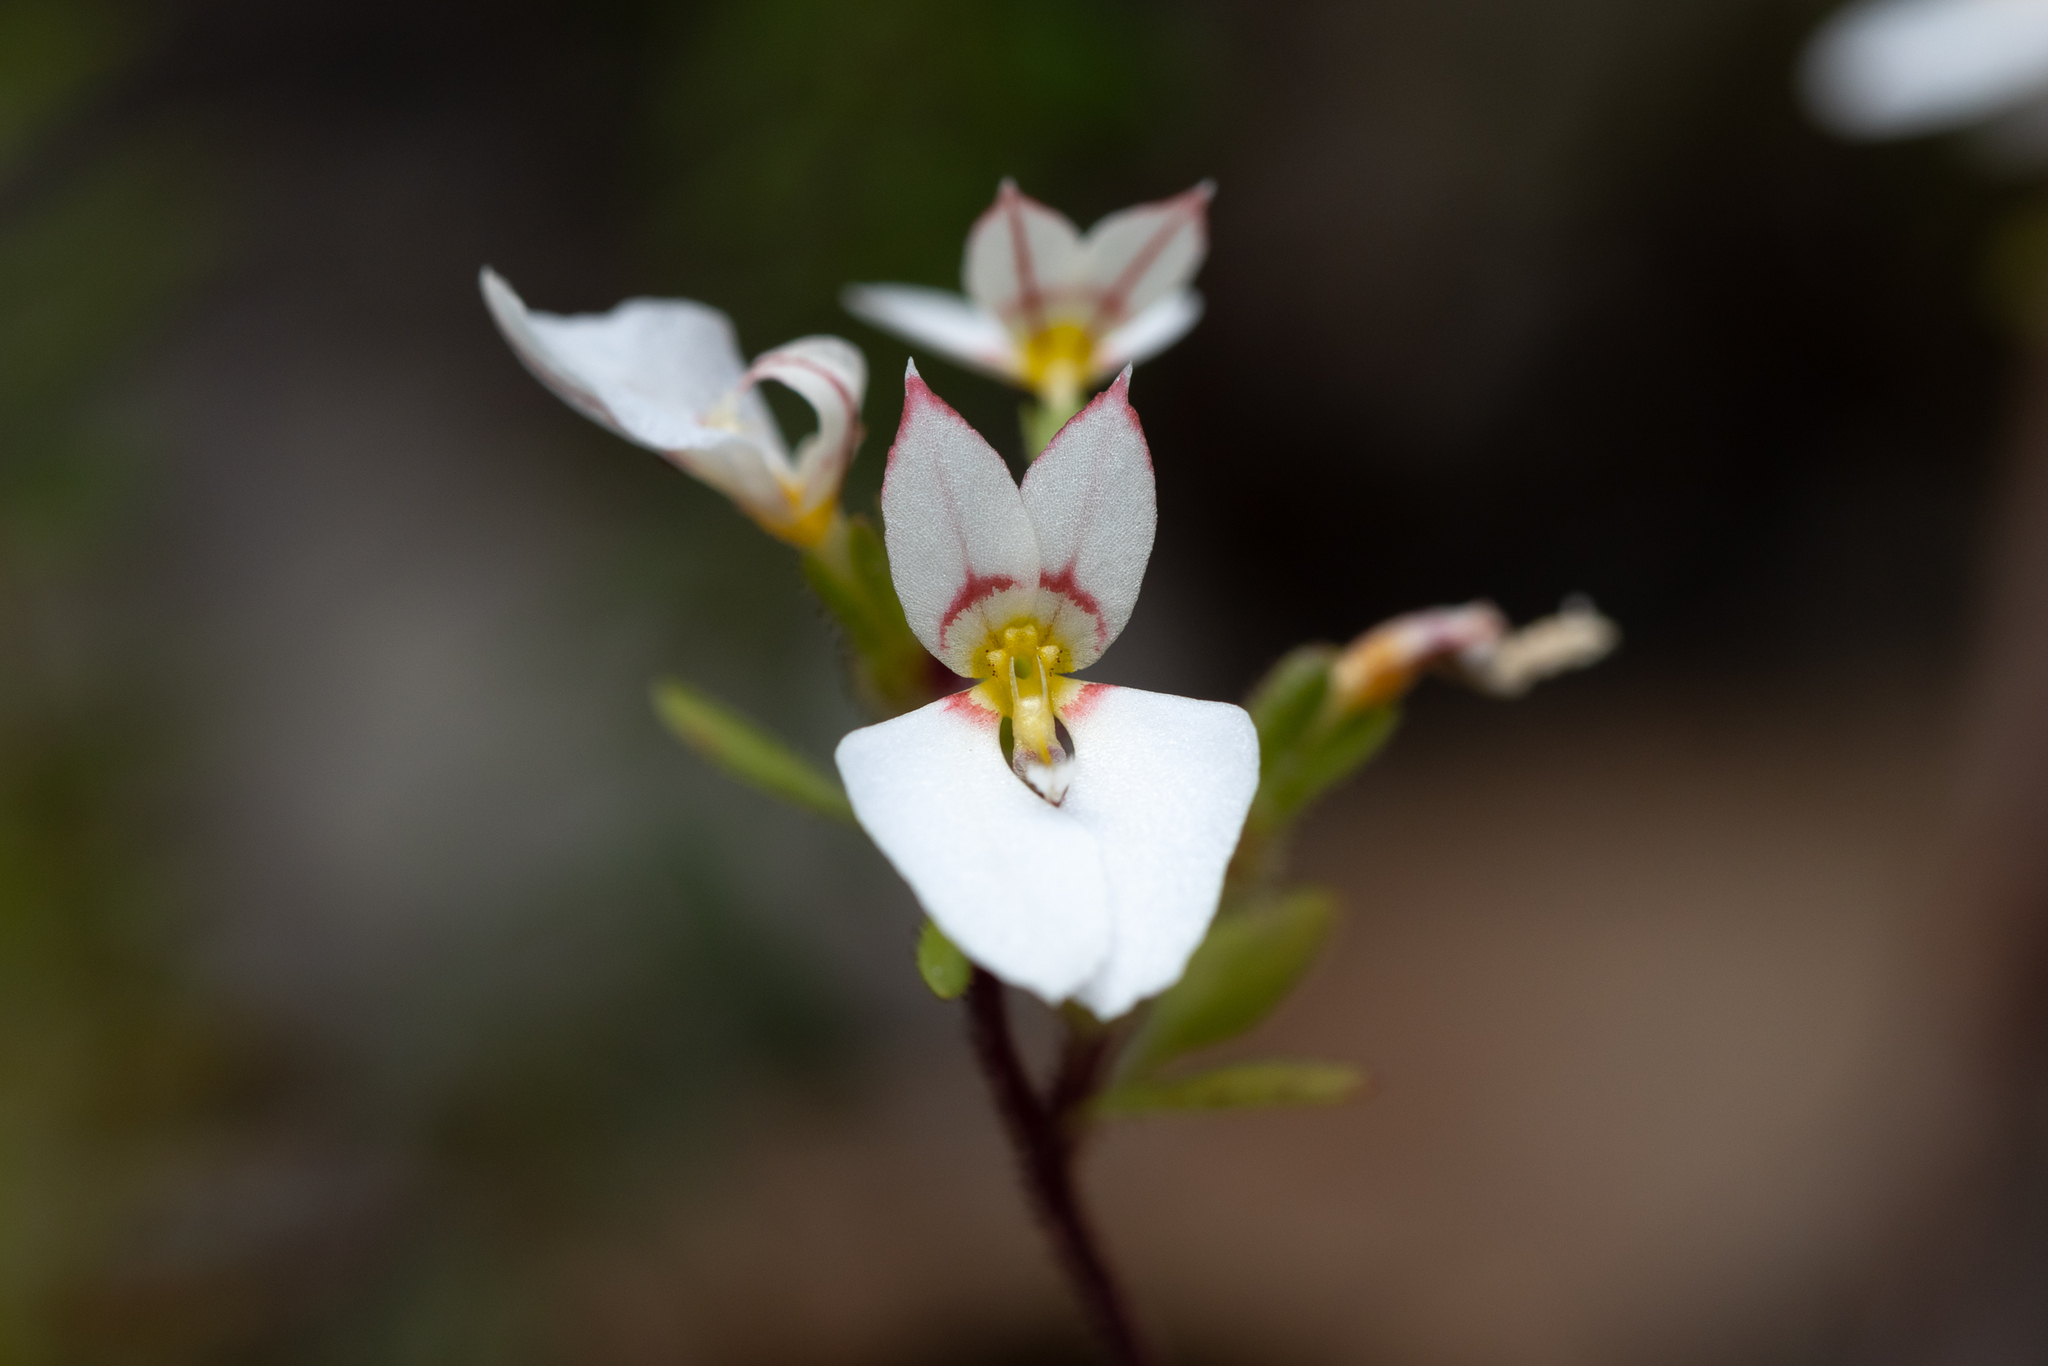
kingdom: Plantae
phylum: Tracheophyta
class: Magnoliopsida
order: Asterales
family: Stylidiaceae
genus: Levenhookia
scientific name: Levenhookia pauciflora
